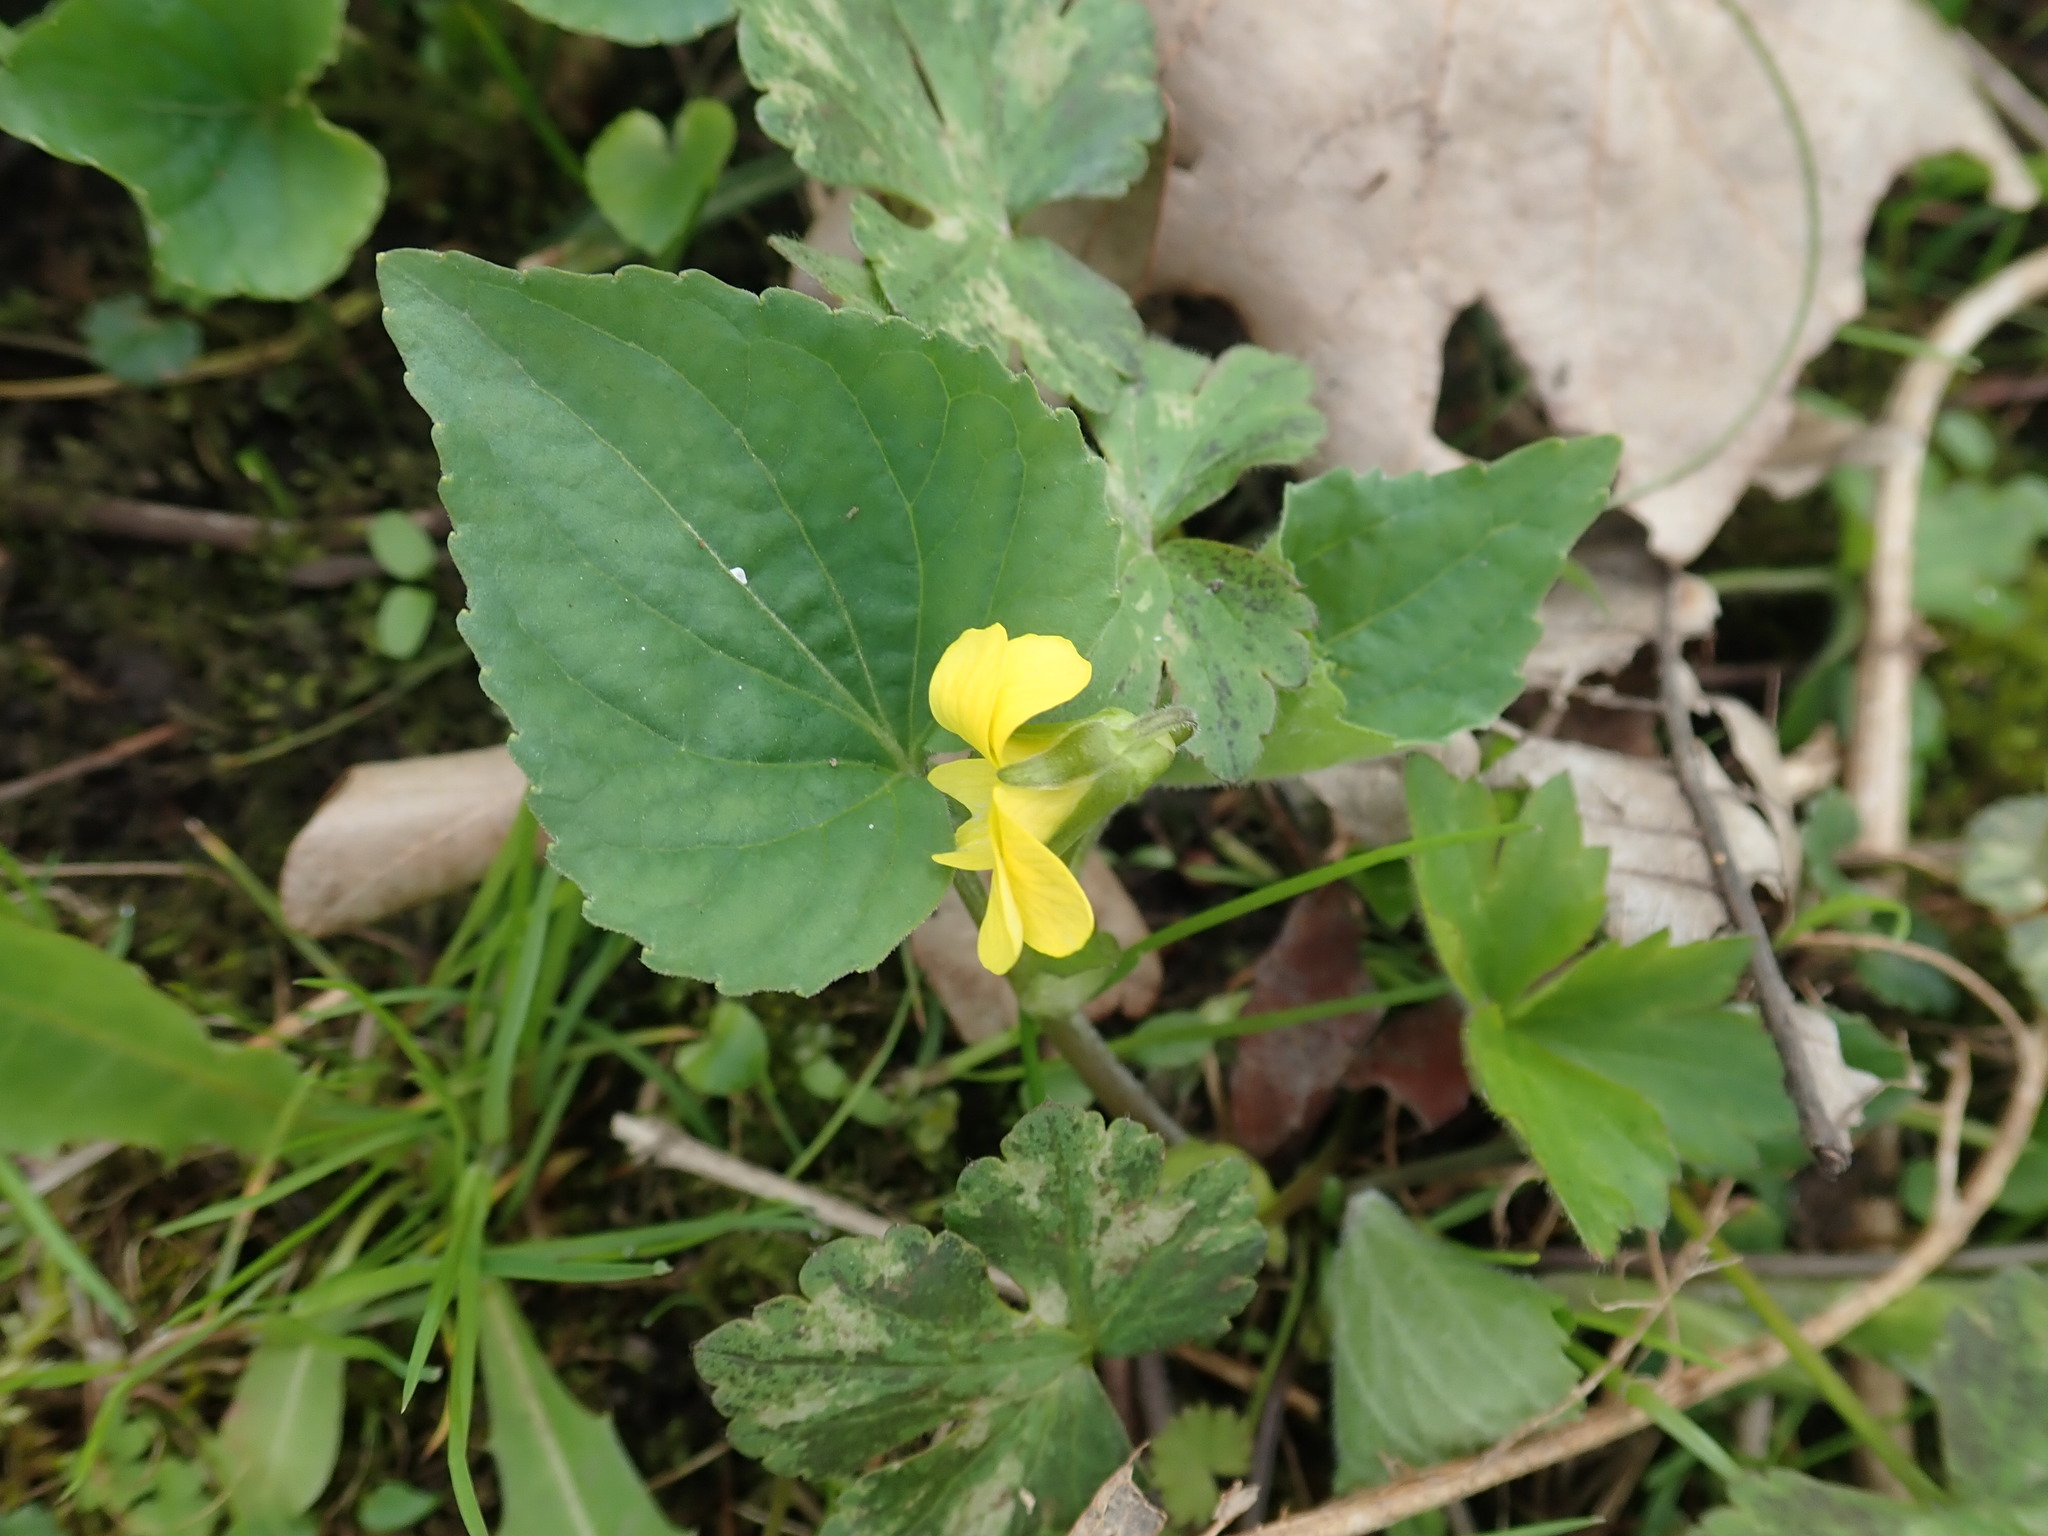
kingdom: Plantae
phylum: Tracheophyta
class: Magnoliopsida
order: Malpighiales
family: Violaceae
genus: Viola
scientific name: Viola eriocarpa
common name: Smooth yellow violet
